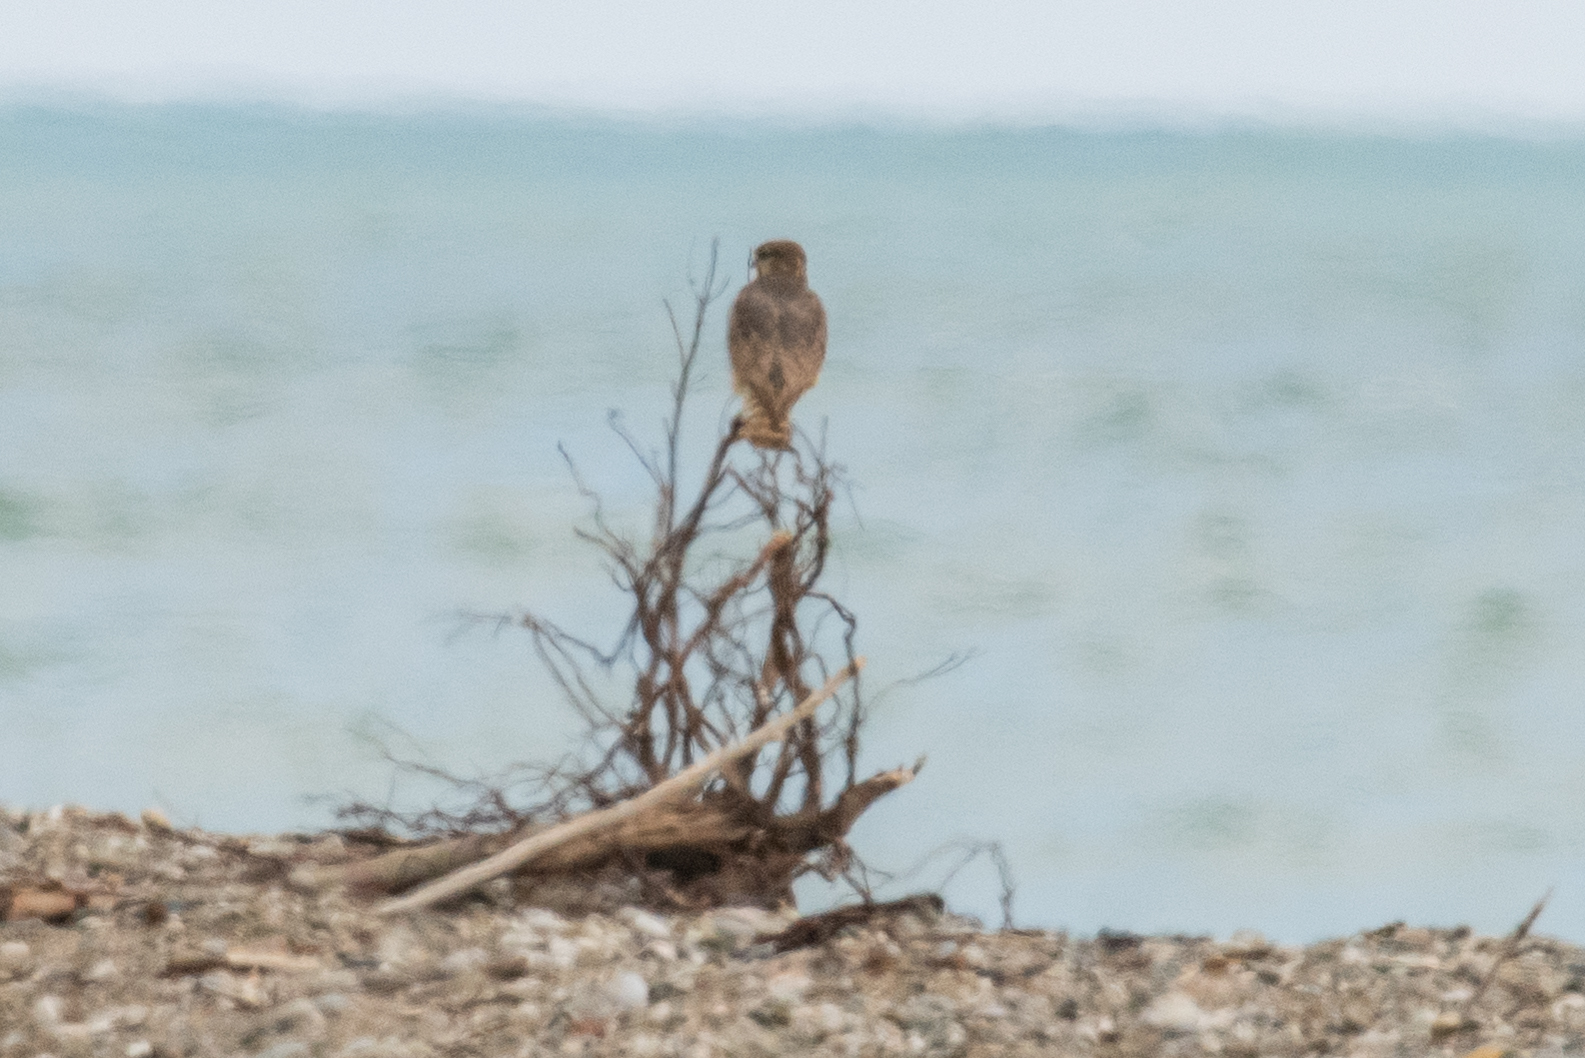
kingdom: Animalia
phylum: Chordata
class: Aves
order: Falconiformes
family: Falconidae
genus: Falco
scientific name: Falco columbarius
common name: Merlin
